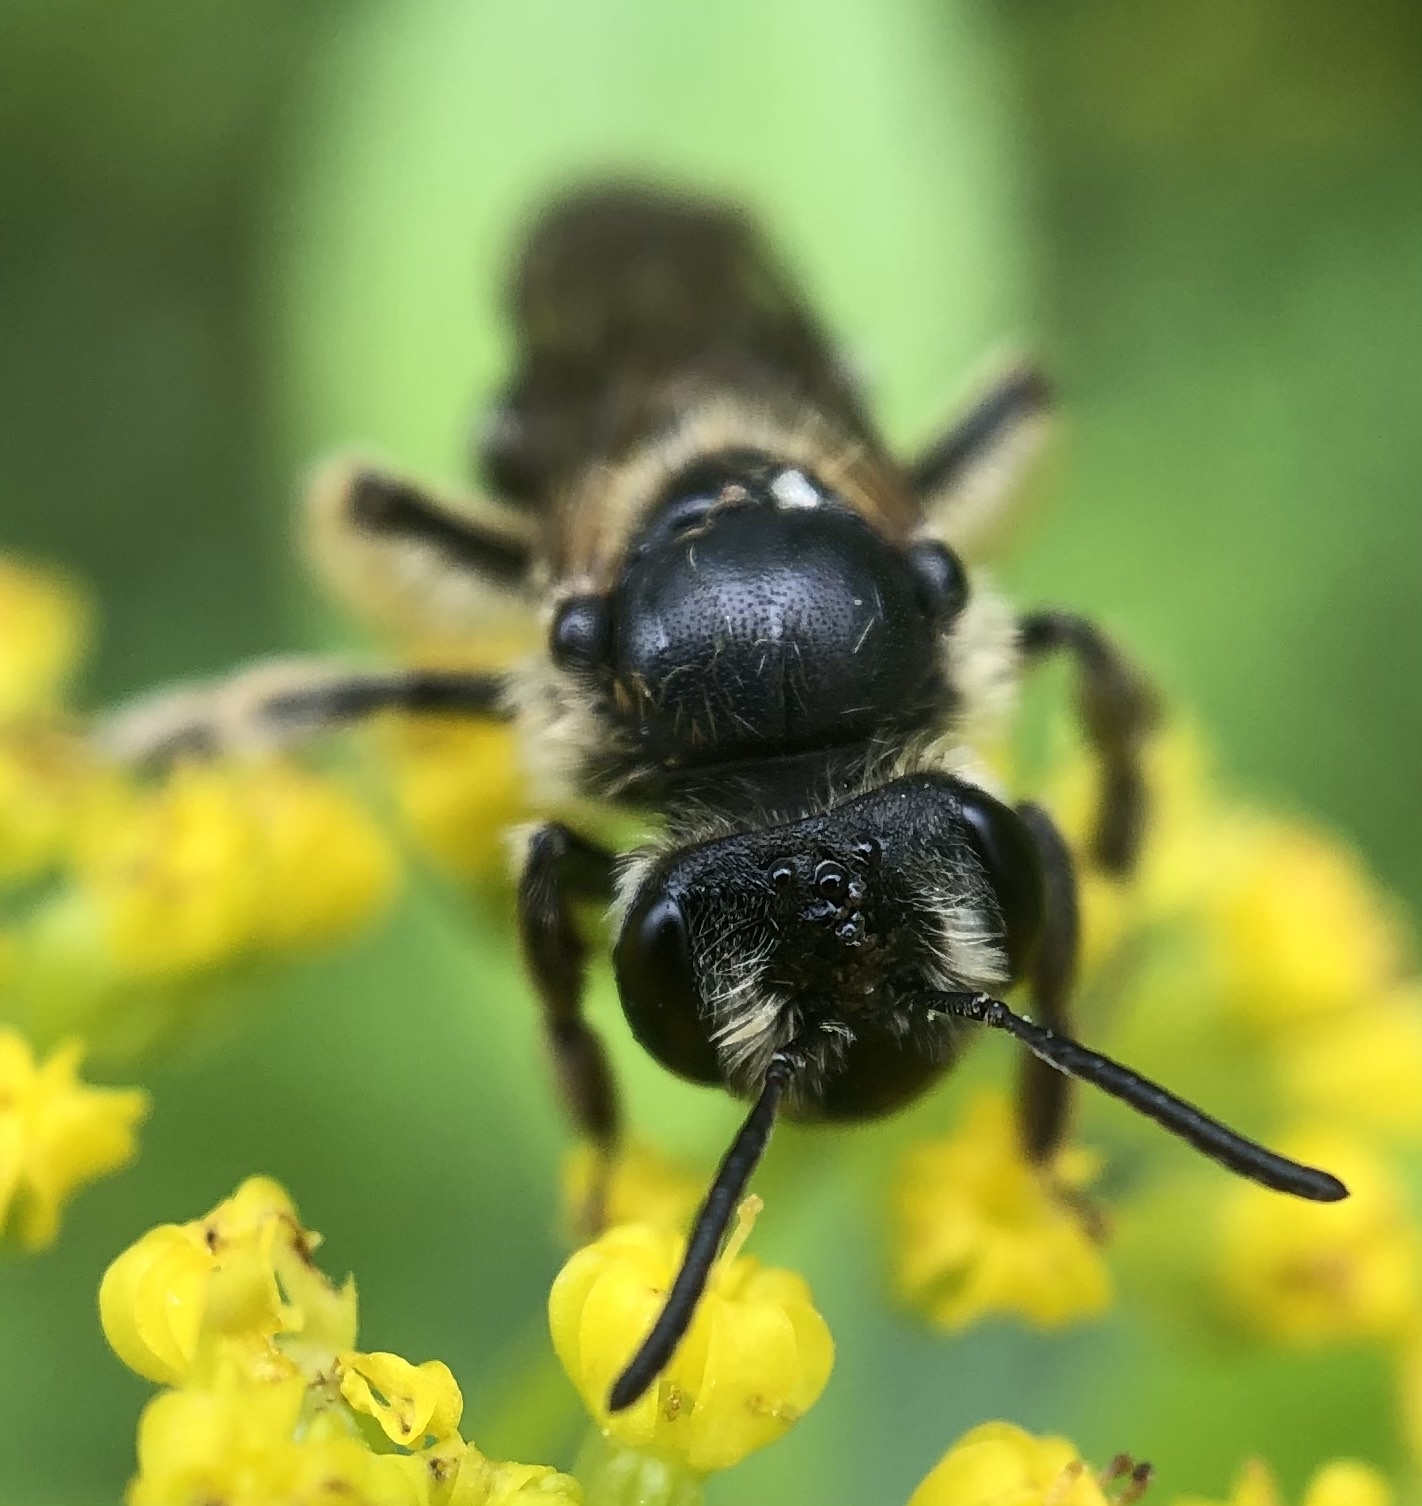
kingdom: Animalia
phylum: Arthropoda
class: Insecta
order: Hymenoptera
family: Andrenidae
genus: Andrena
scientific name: Andrena crataegi
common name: Hawthorn mining bee
